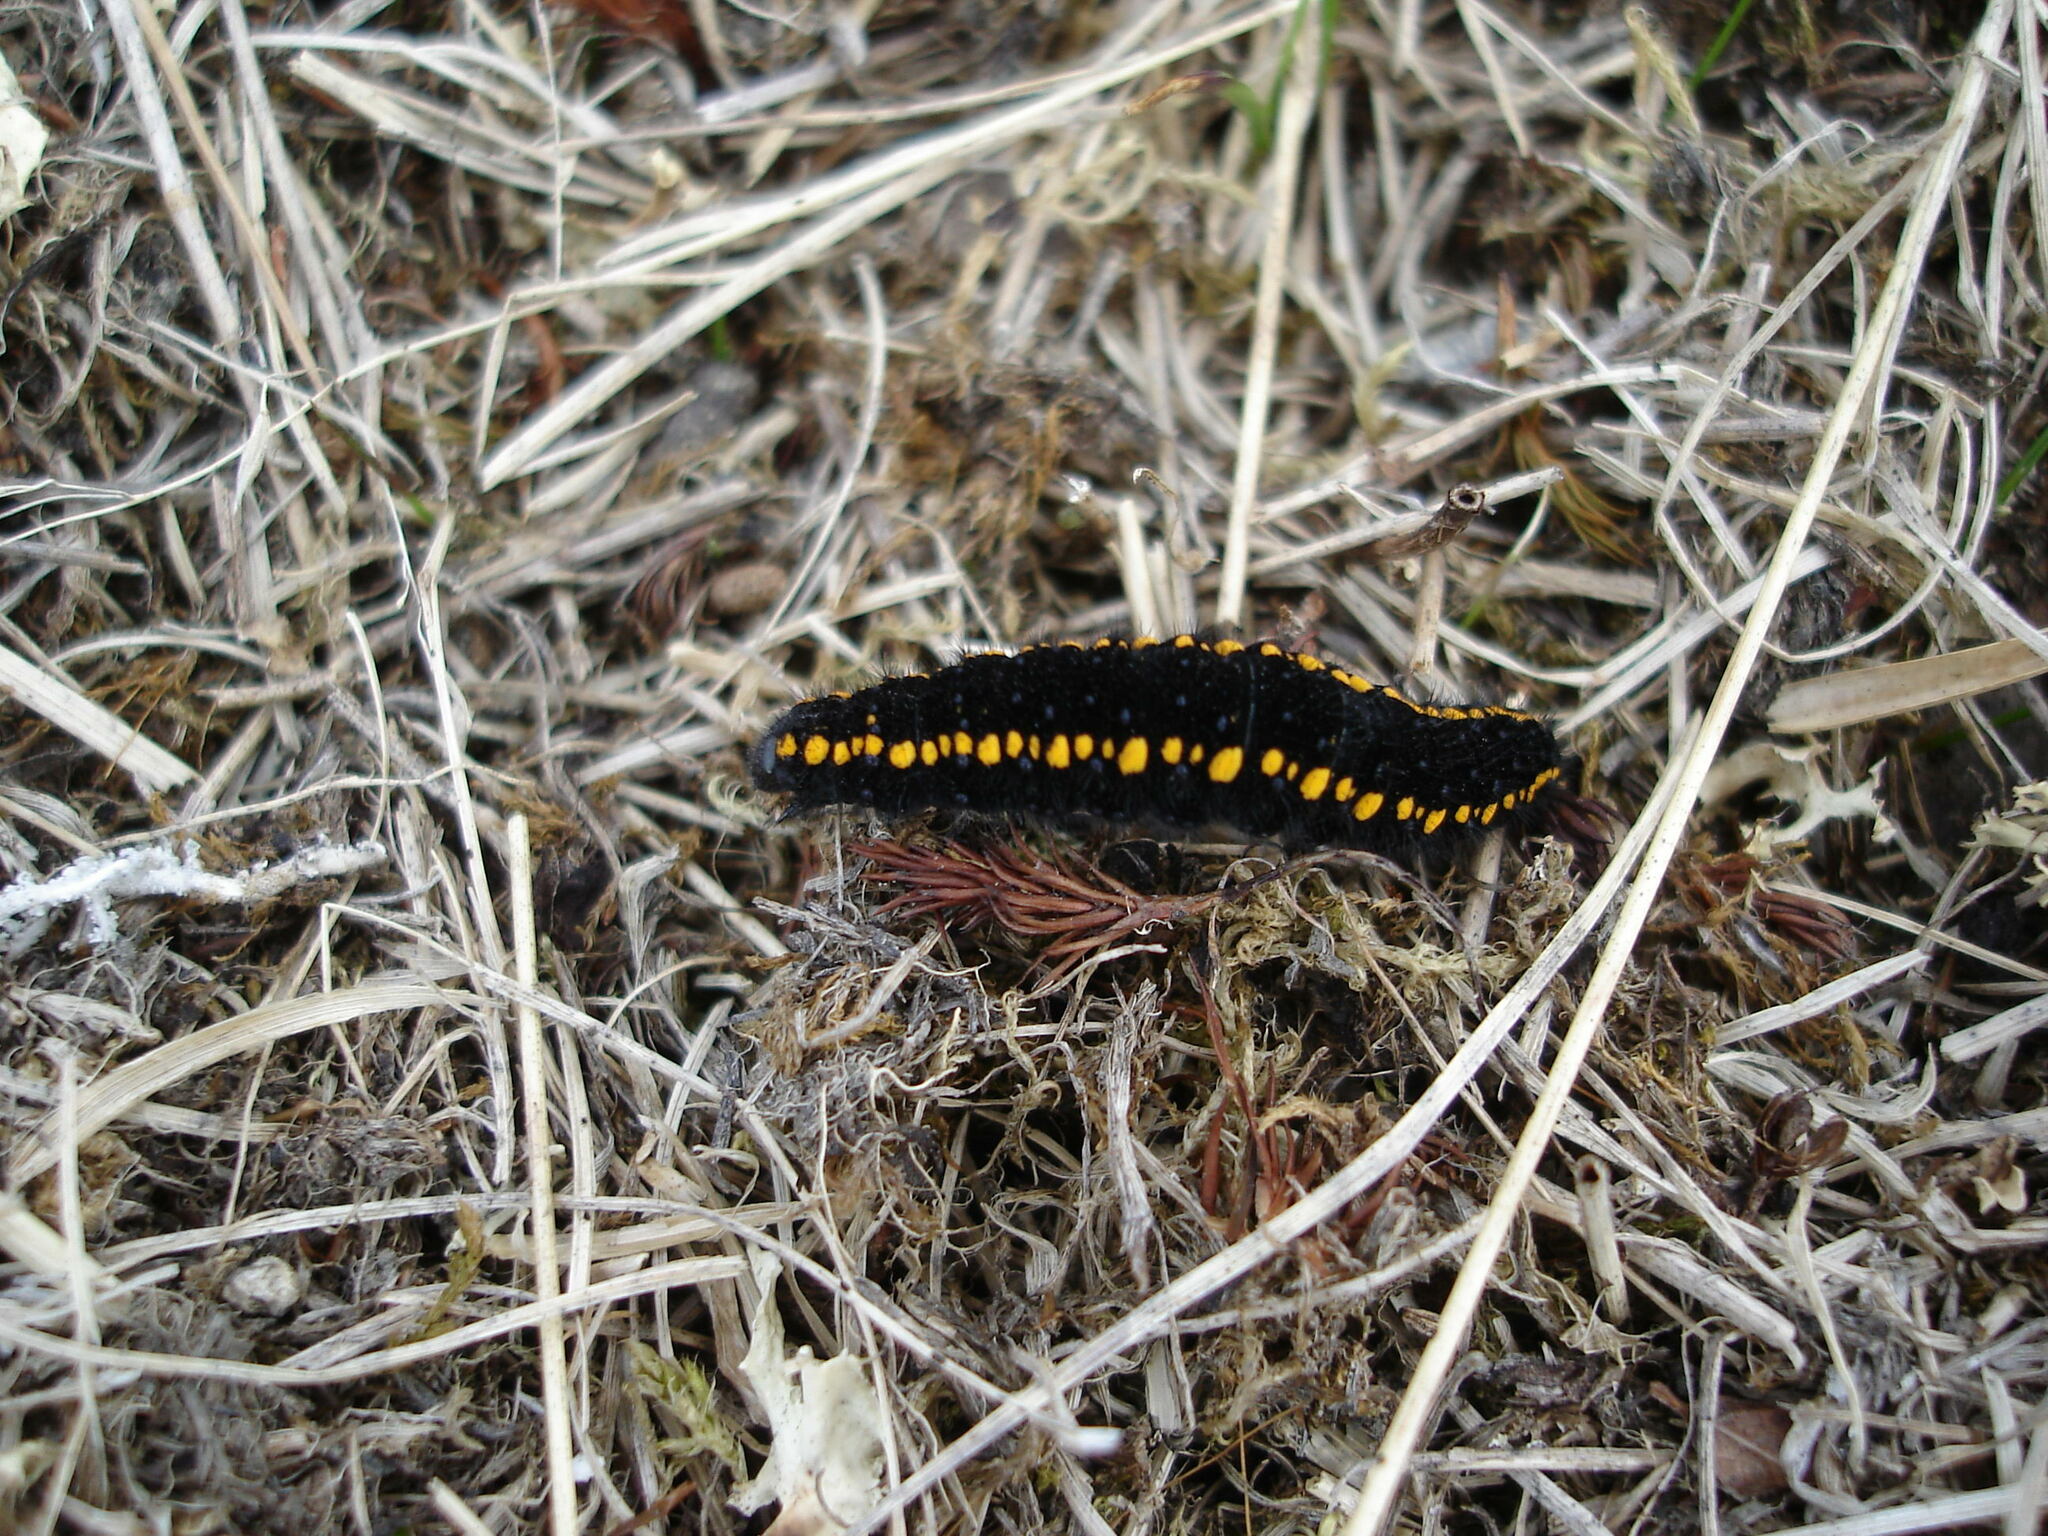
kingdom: Animalia
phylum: Arthropoda
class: Insecta
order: Lepidoptera
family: Papilionidae
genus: Parnassius
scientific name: Parnassius phoebus
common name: Small apollo
